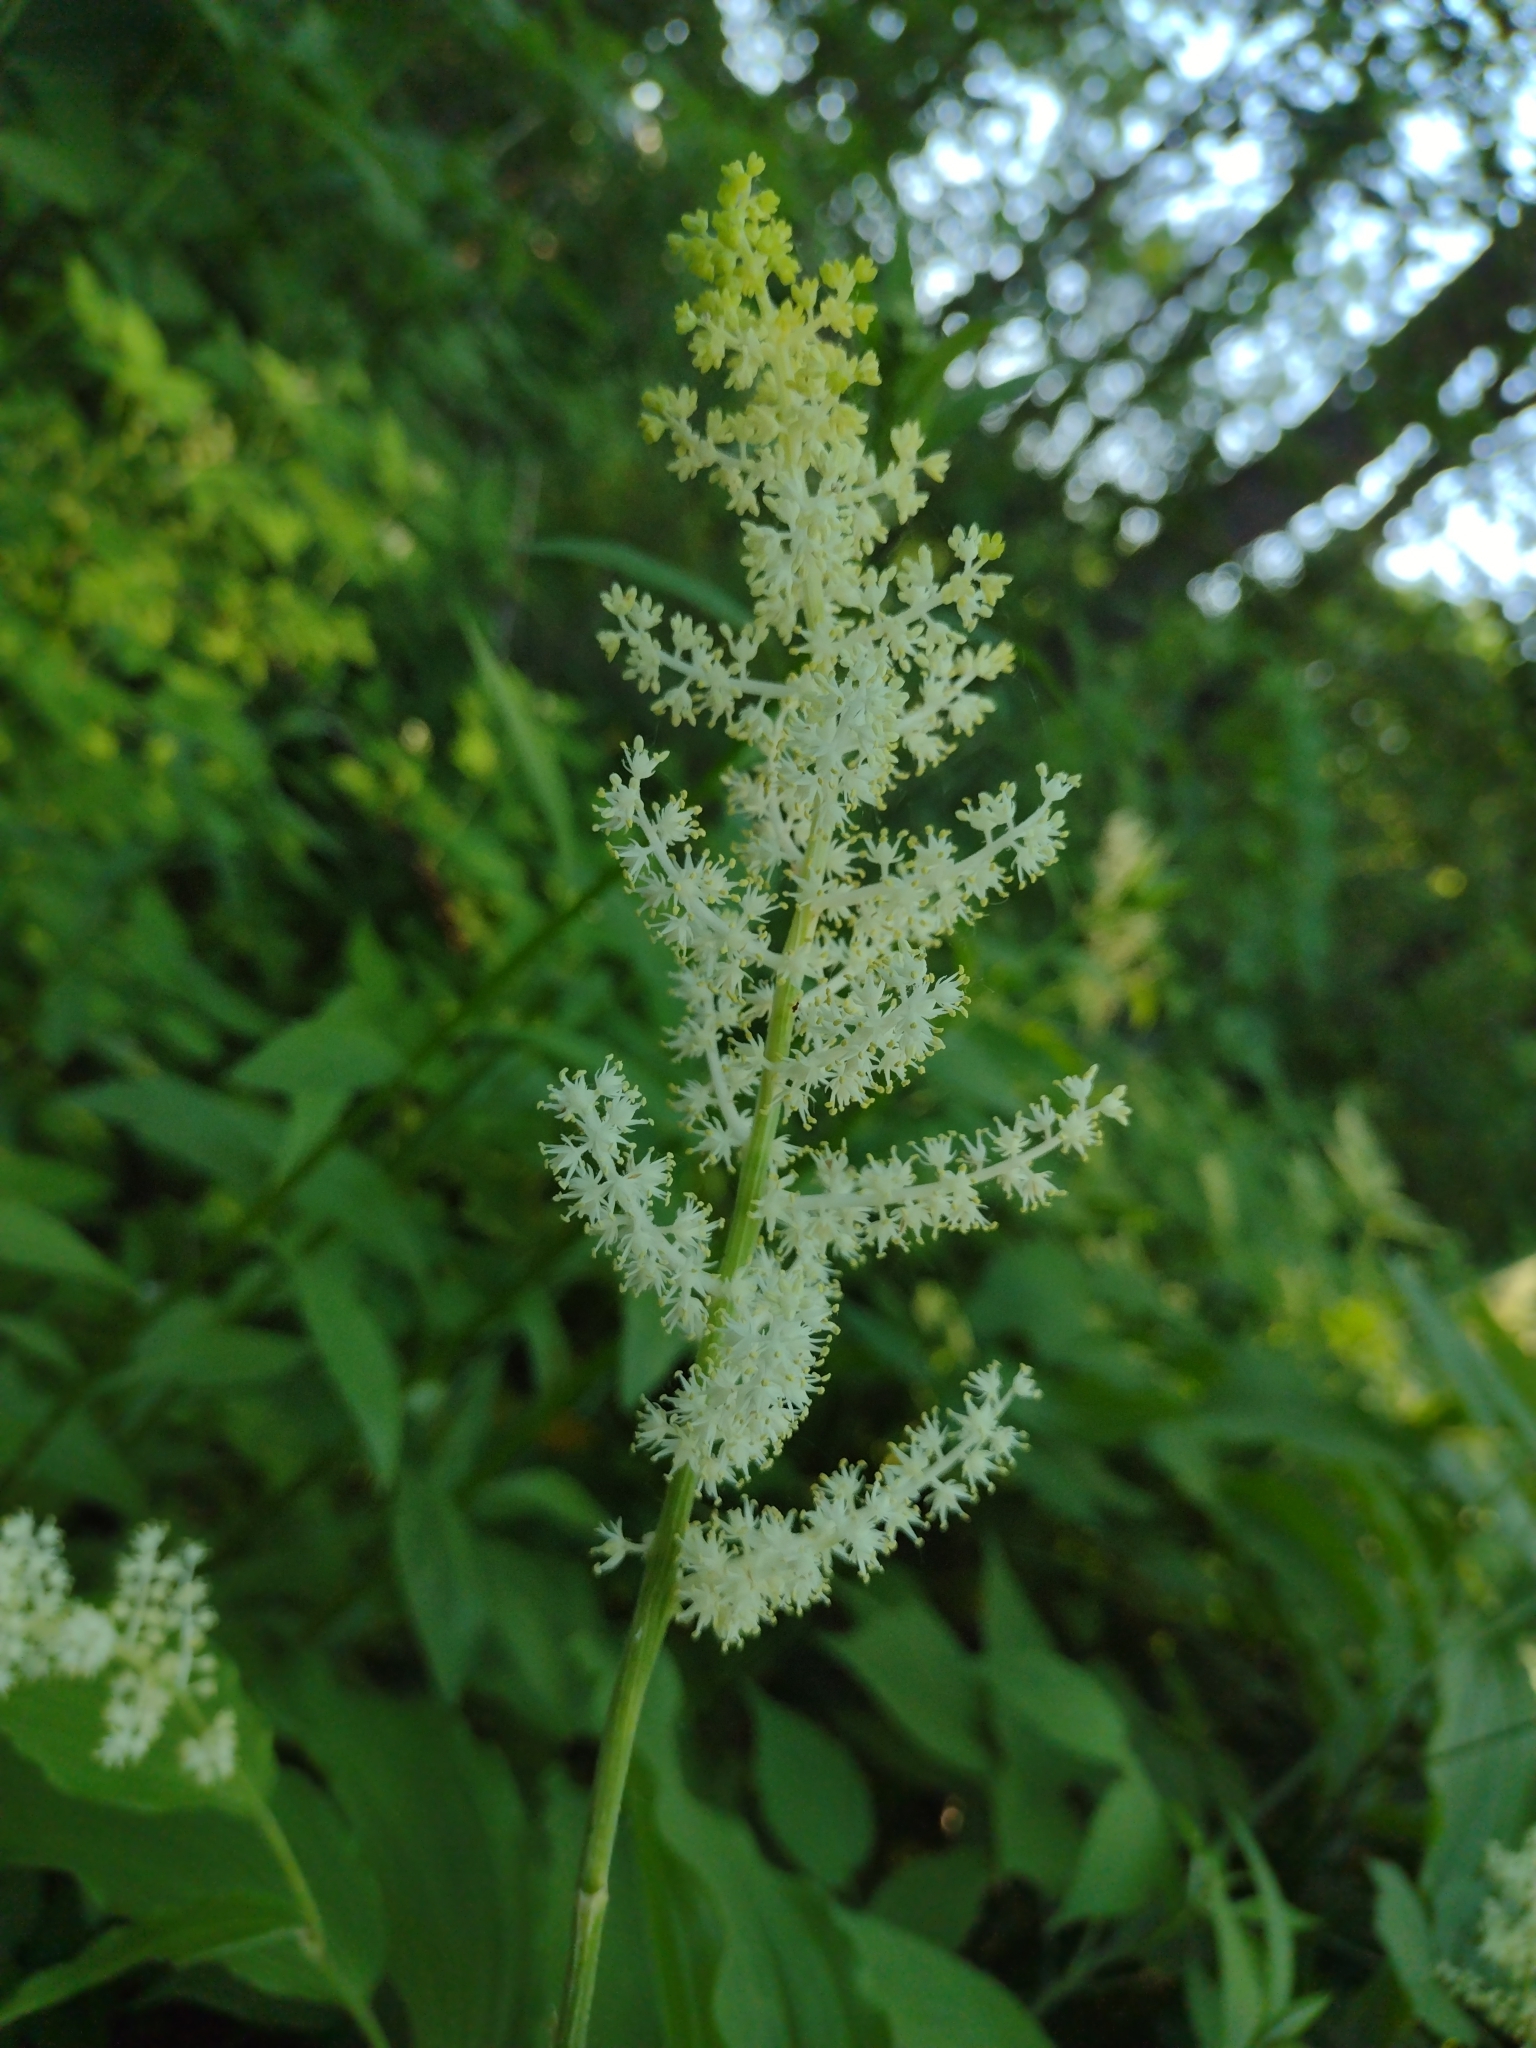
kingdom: Plantae
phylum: Tracheophyta
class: Liliopsida
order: Asparagales
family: Asparagaceae
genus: Maianthemum
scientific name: Maianthemum racemosum
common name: False spikenard
